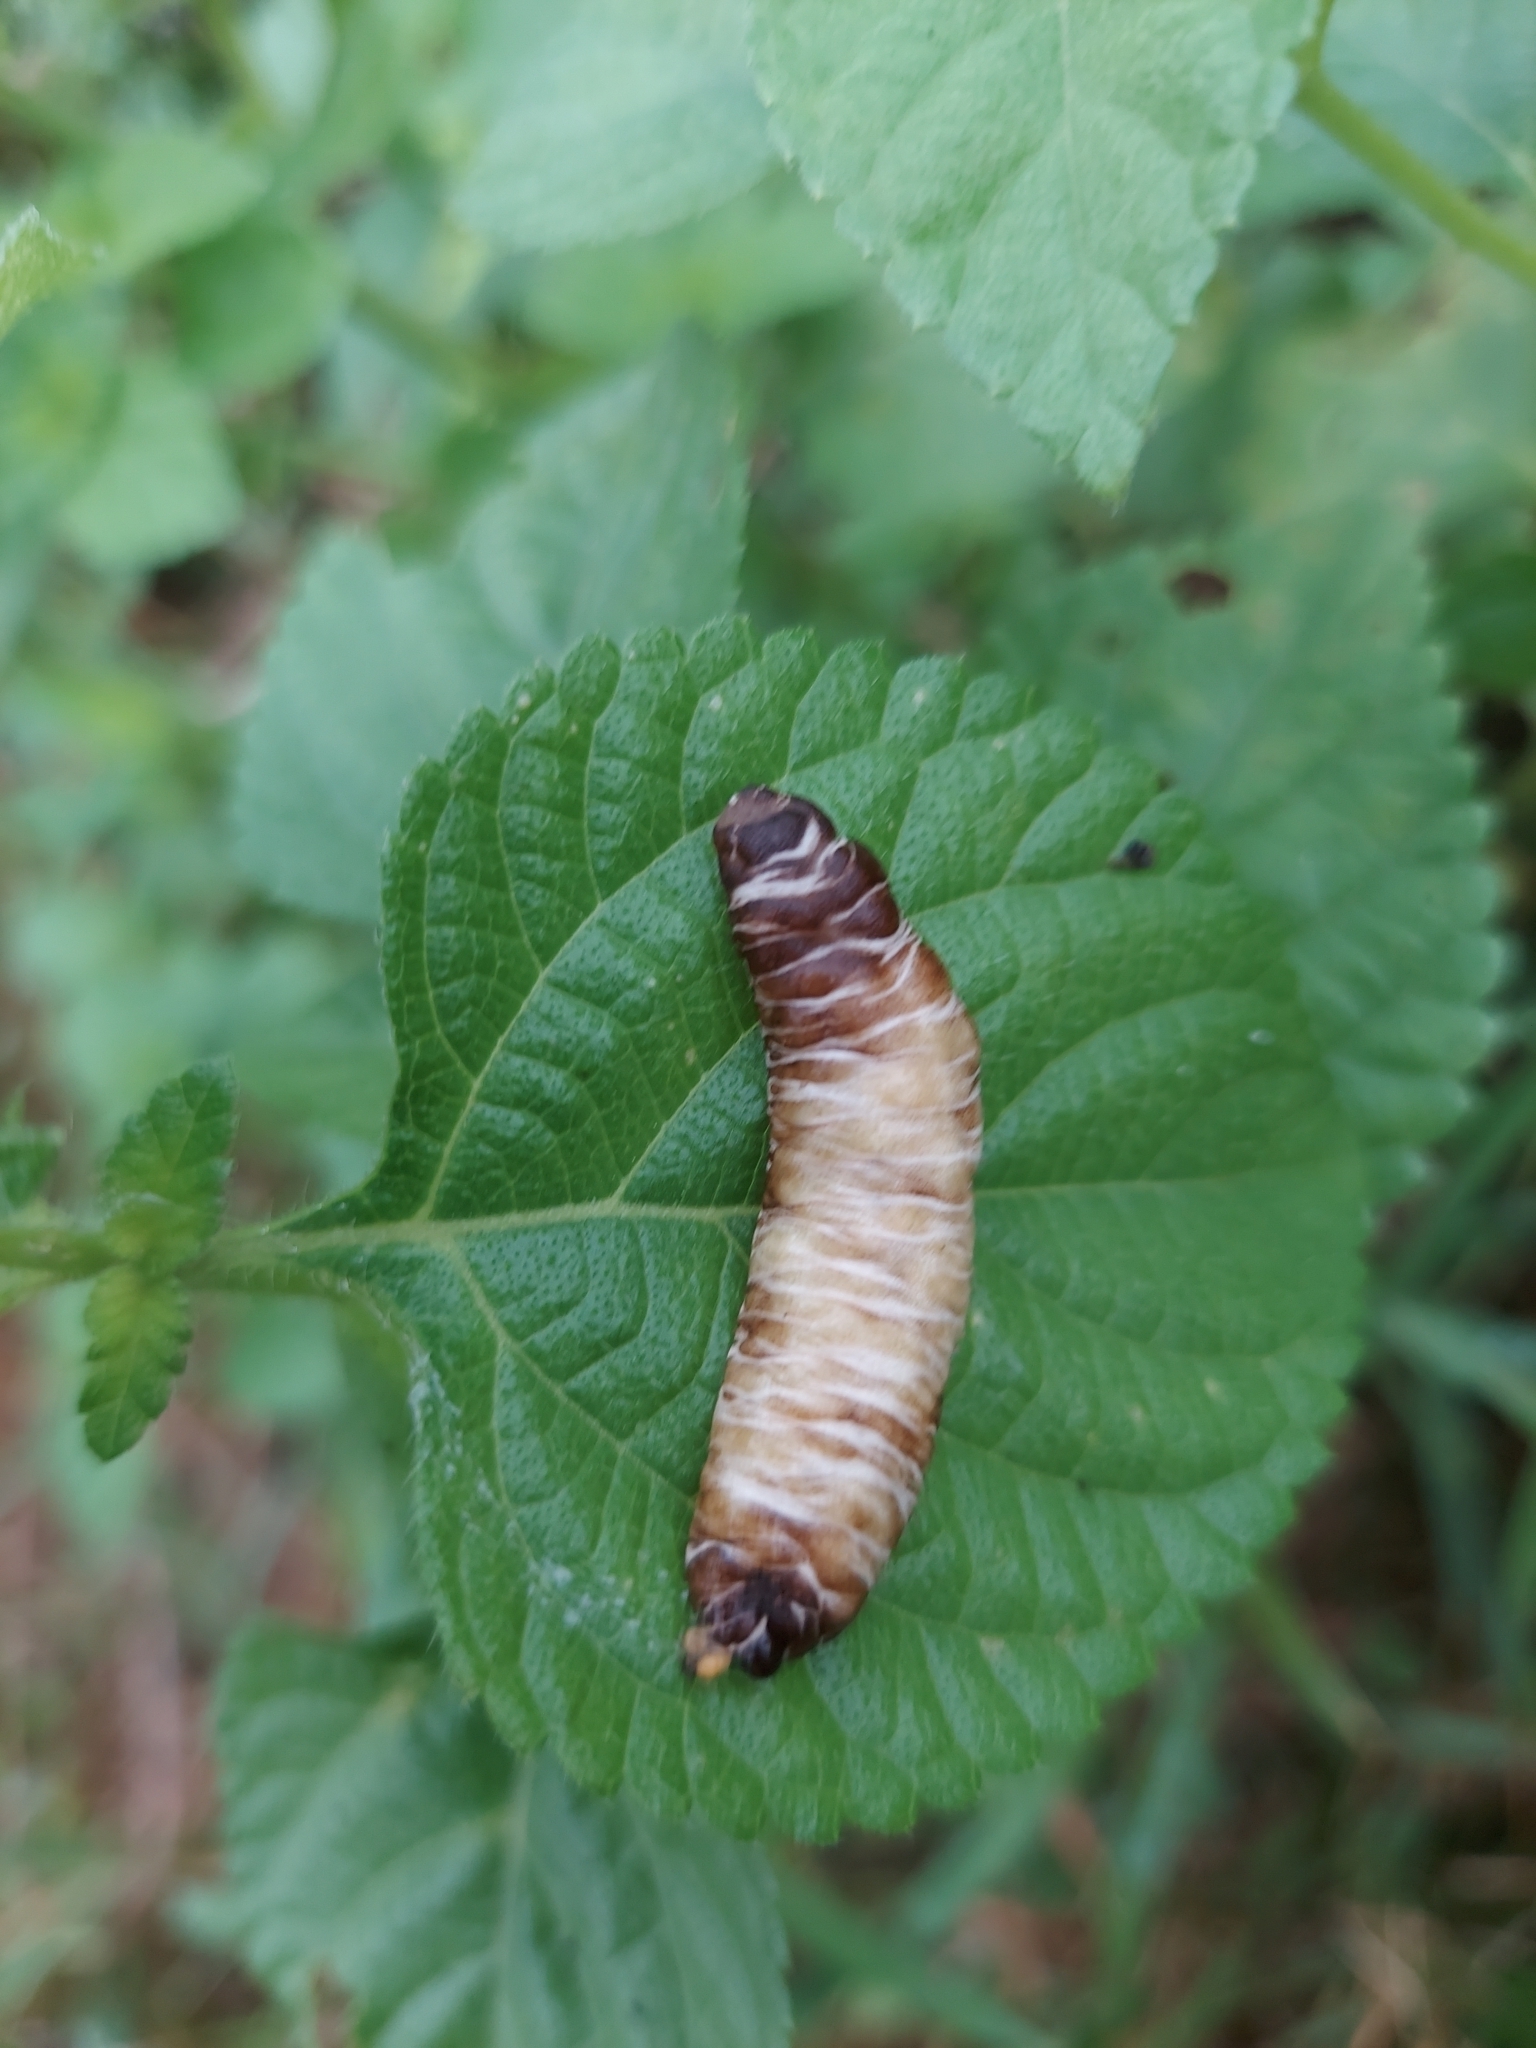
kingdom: Animalia
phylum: Mollusca
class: Gastropoda
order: Systellommatophora
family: Veronicellidae
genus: Laevicaulis
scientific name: Laevicaulis haroldi
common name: Caterpillar slug
